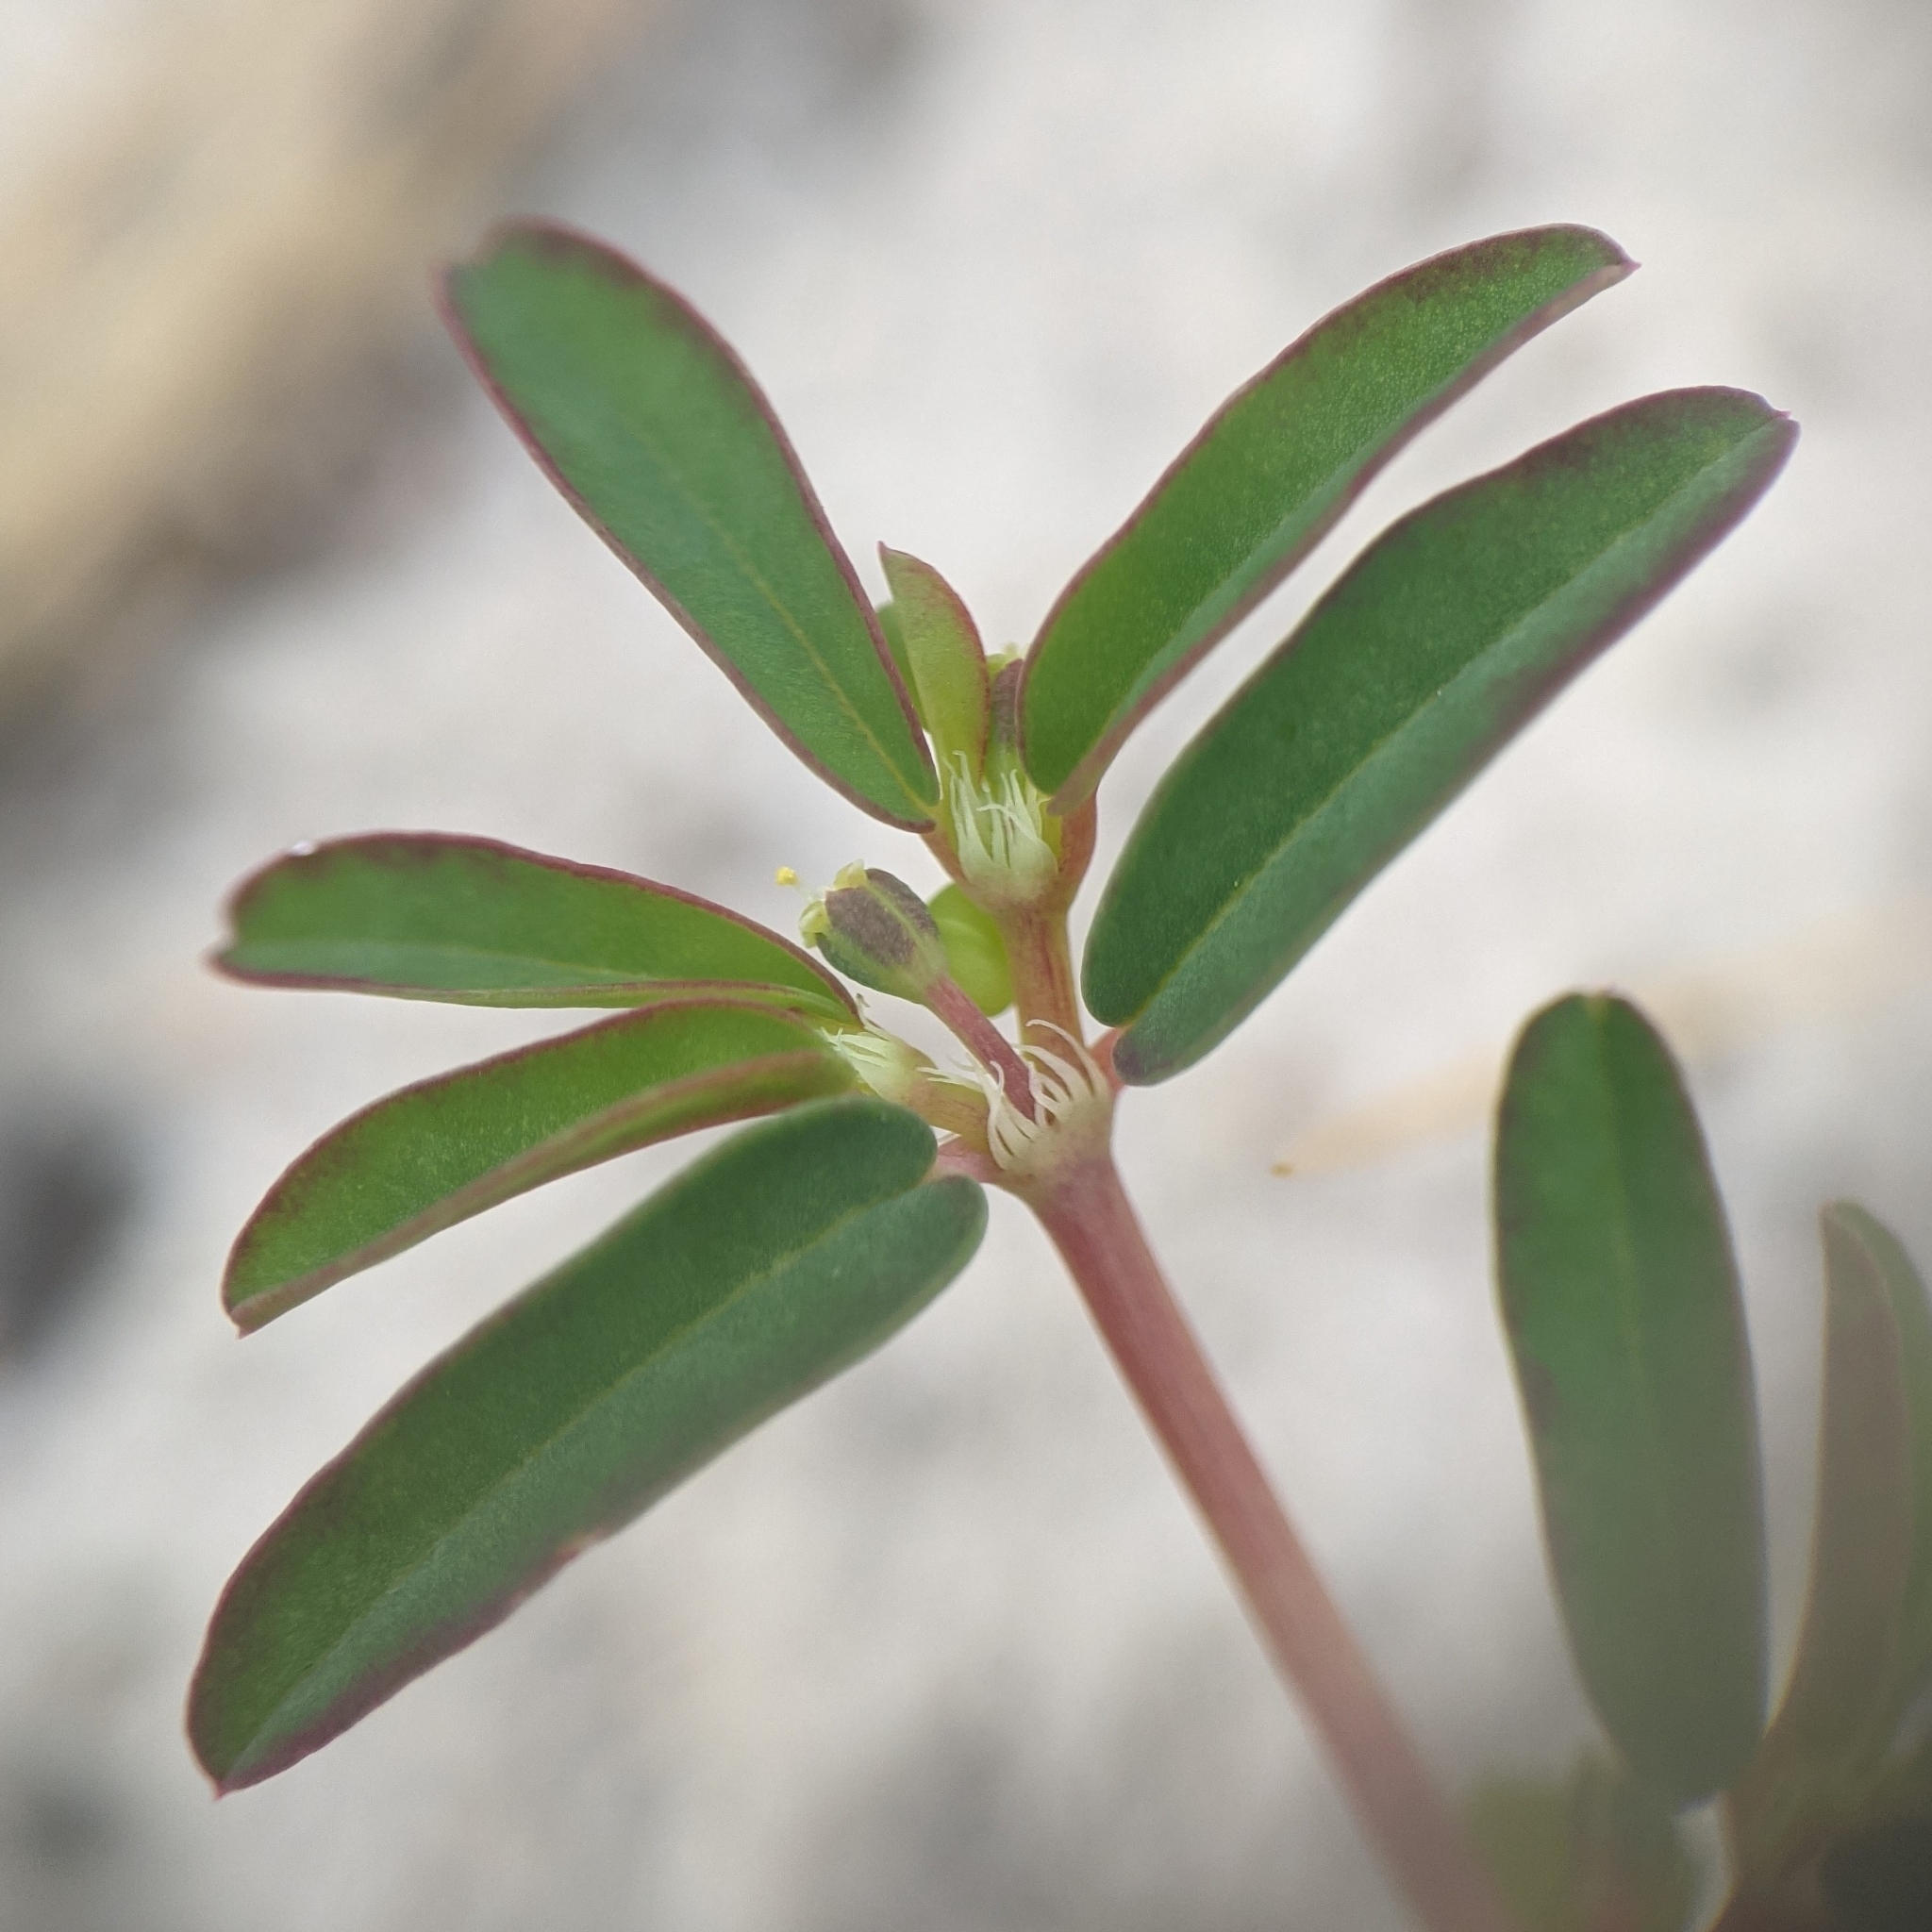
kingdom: Plantae
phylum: Tracheophyta
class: Magnoliopsida
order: Malpighiales
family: Euphorbiaceae
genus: Euphorbia
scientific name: Euphorbia bombensis
